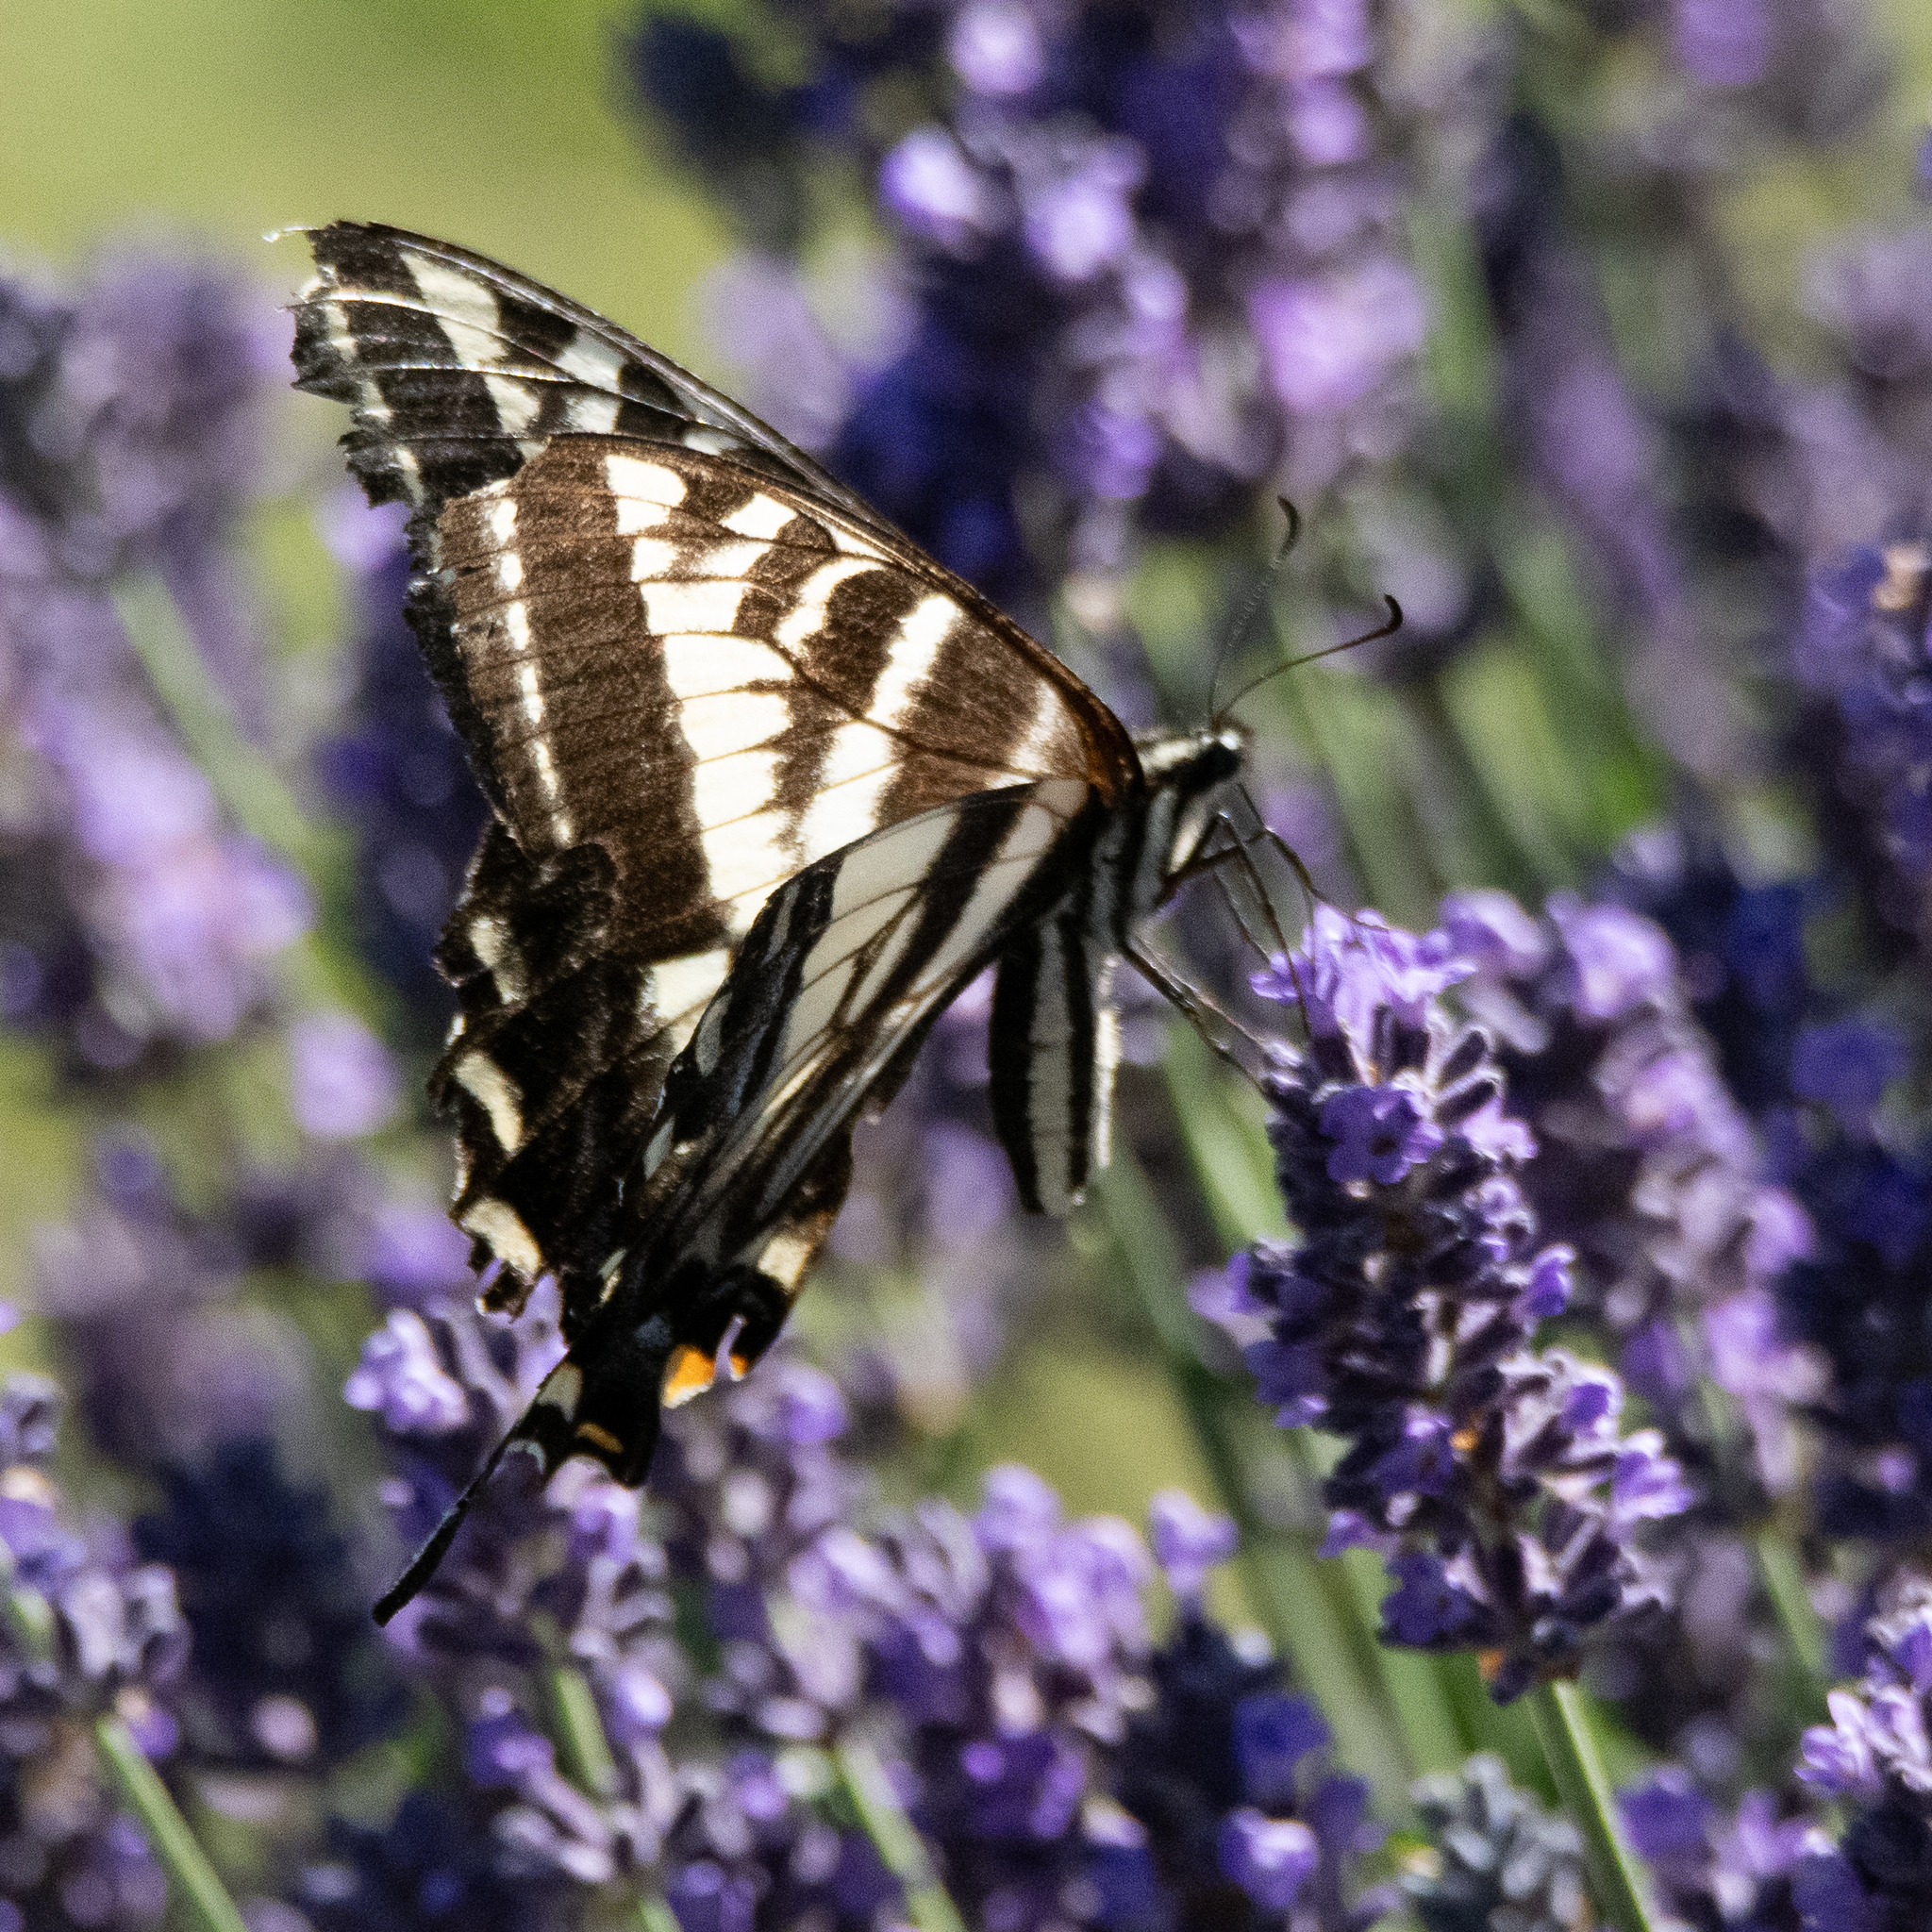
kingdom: Animalia
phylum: Arthropoda
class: Insecta
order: Lepidoptera
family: Papilionidae
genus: Papilio
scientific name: Papilio eurymedon
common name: Pale tiger swallowtail
